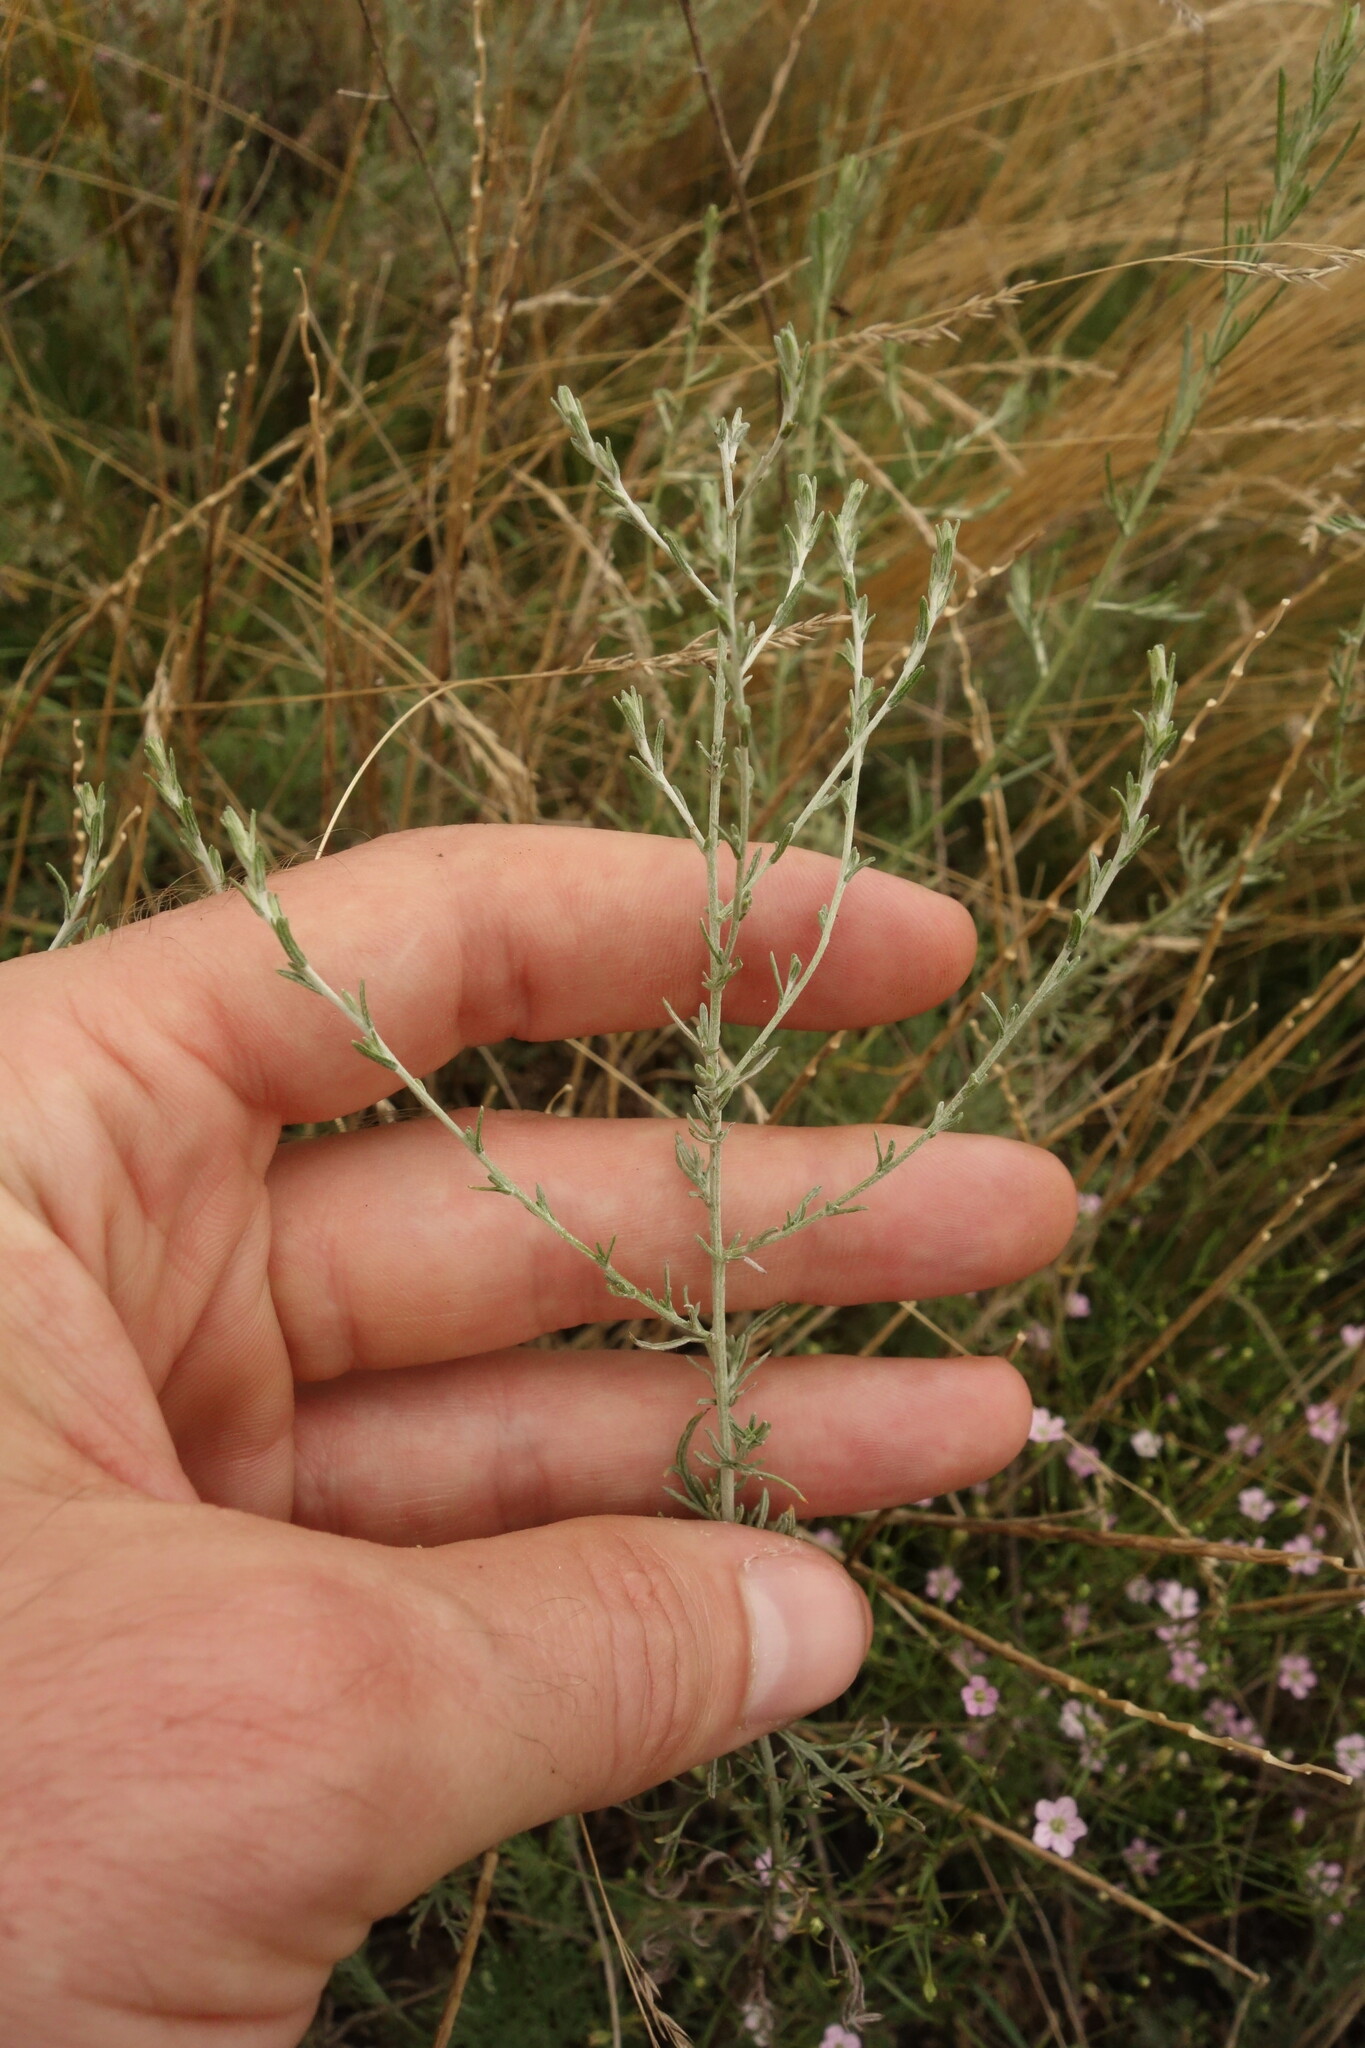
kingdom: Plantae
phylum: Tracheophyta
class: Magnoliopsida
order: Asterales
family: Asteraceae
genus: Artemisia
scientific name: Artemisia santonicum
